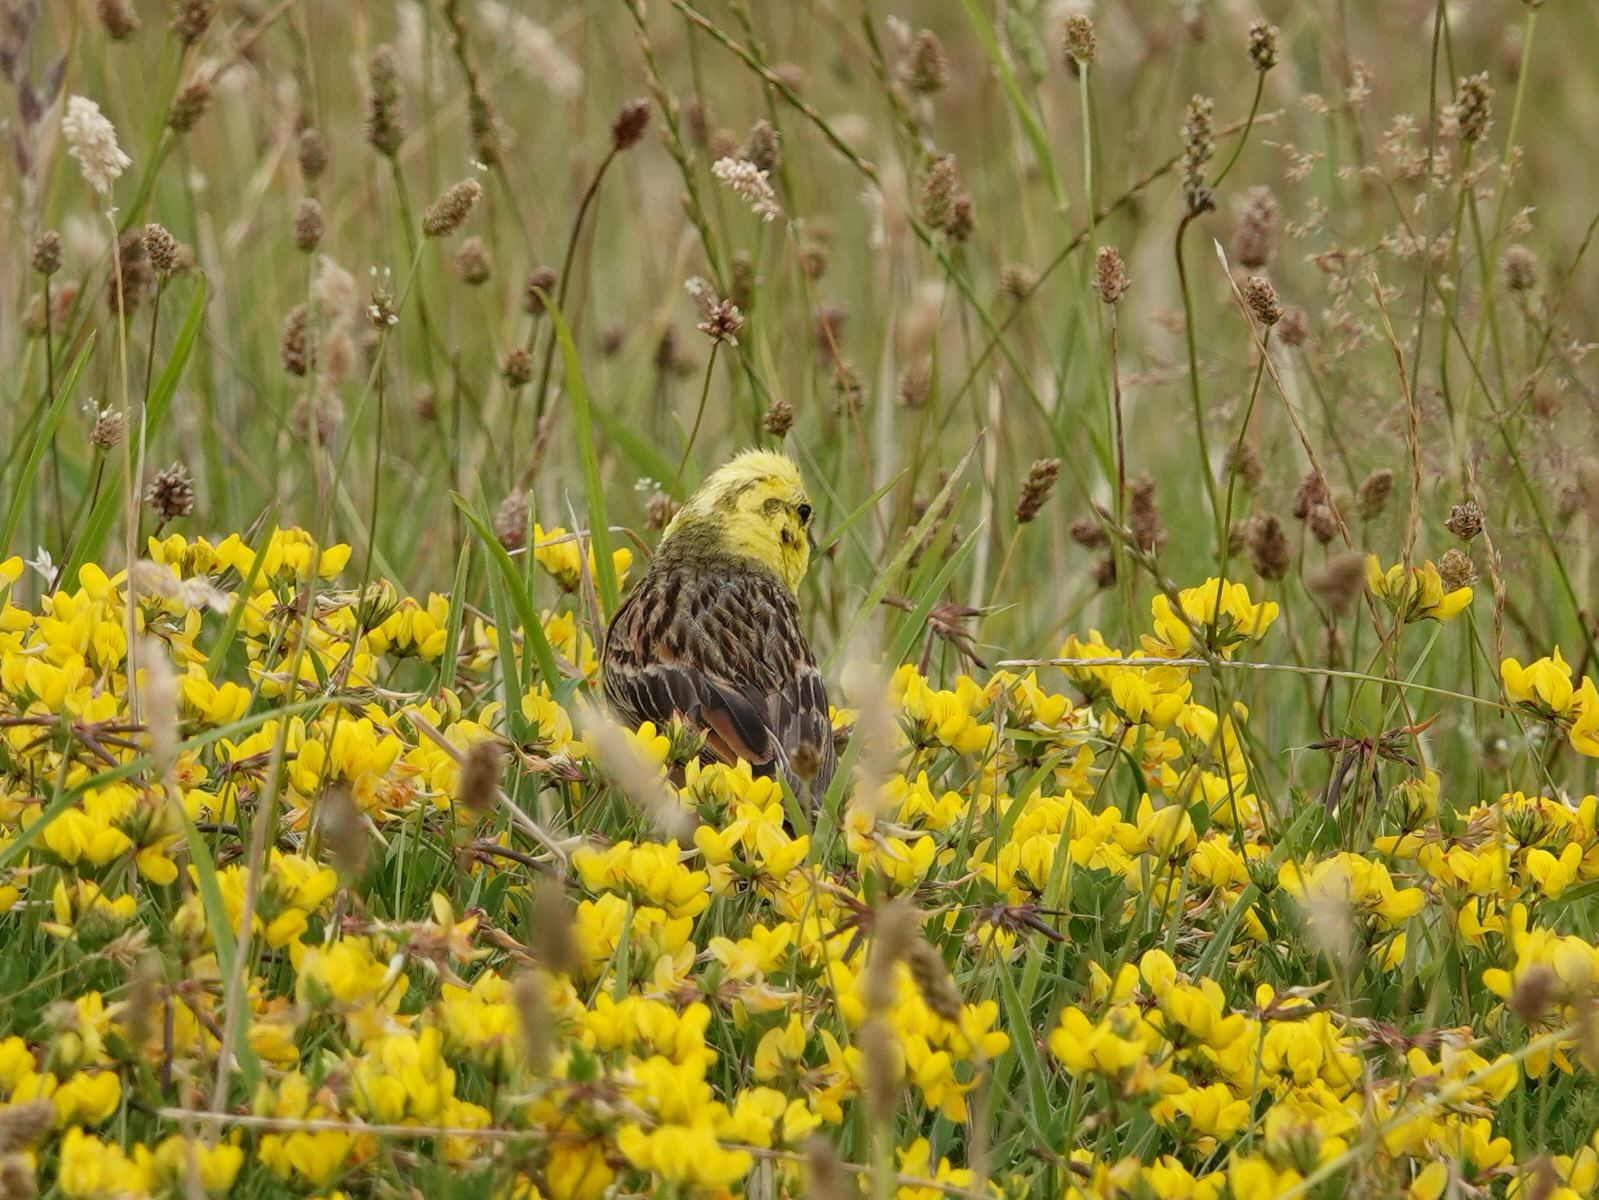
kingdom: Animalia
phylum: Chordata
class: Aves
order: Passeriformes
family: Emberizidae
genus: Emberiza
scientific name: Emberiza citrinella
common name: Yellowhammer
